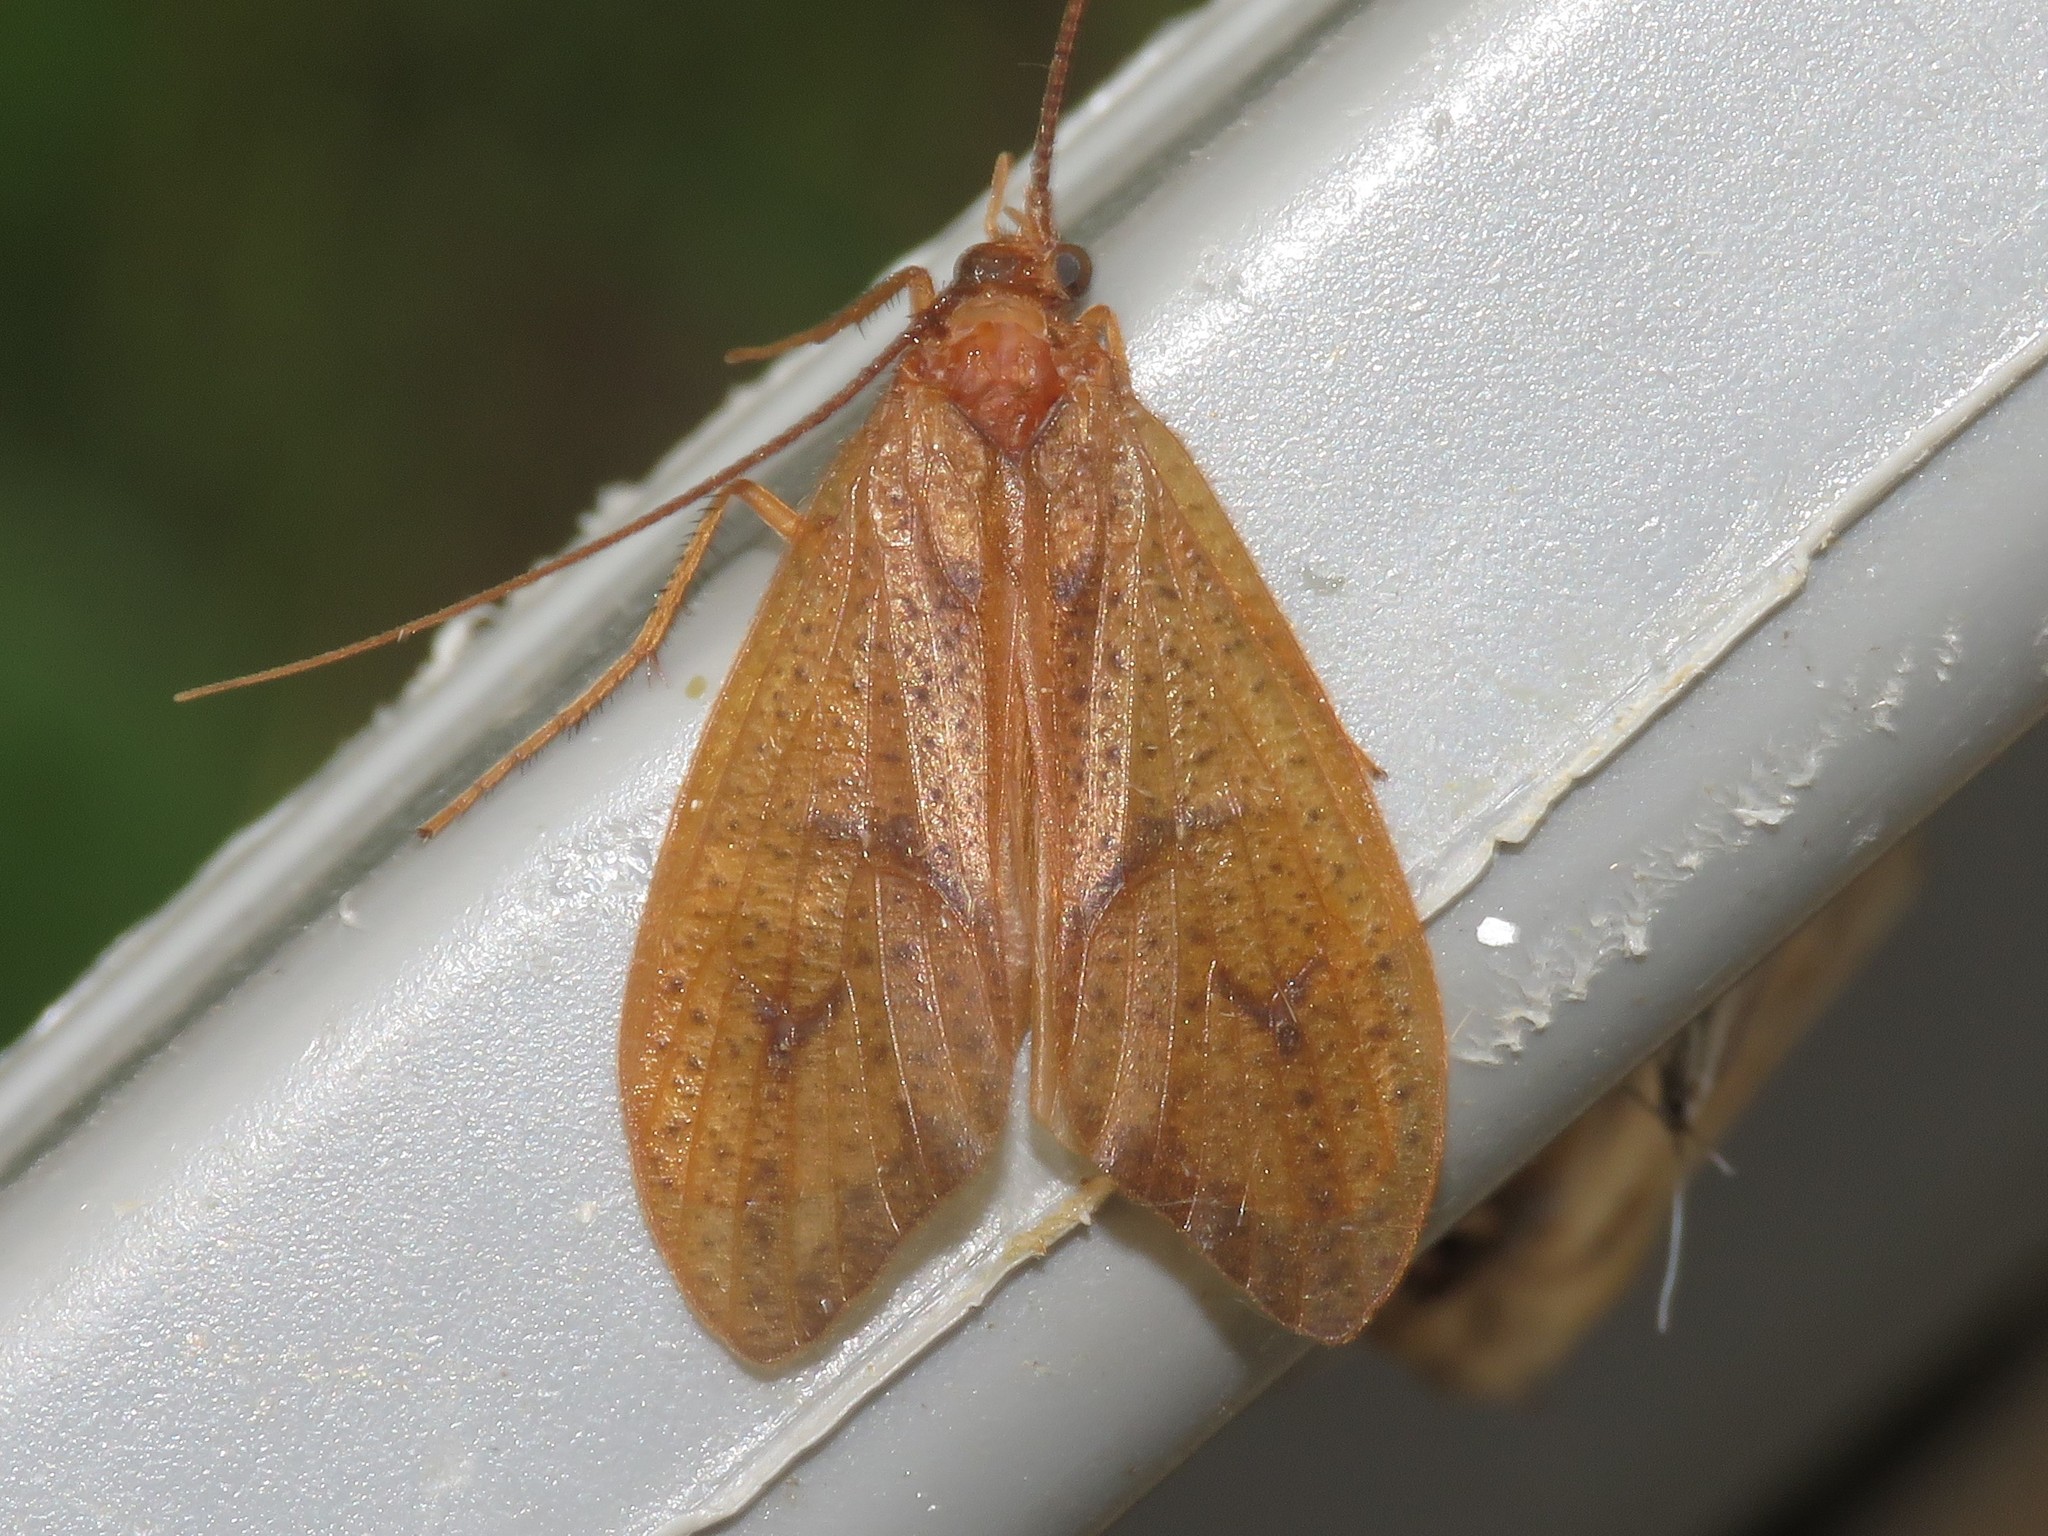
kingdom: Animalia
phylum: Arthropoda
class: Insecta
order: Trichoptera
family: Limnephilidae
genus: Pycnopsyche
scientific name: Pycnopsyche antica
